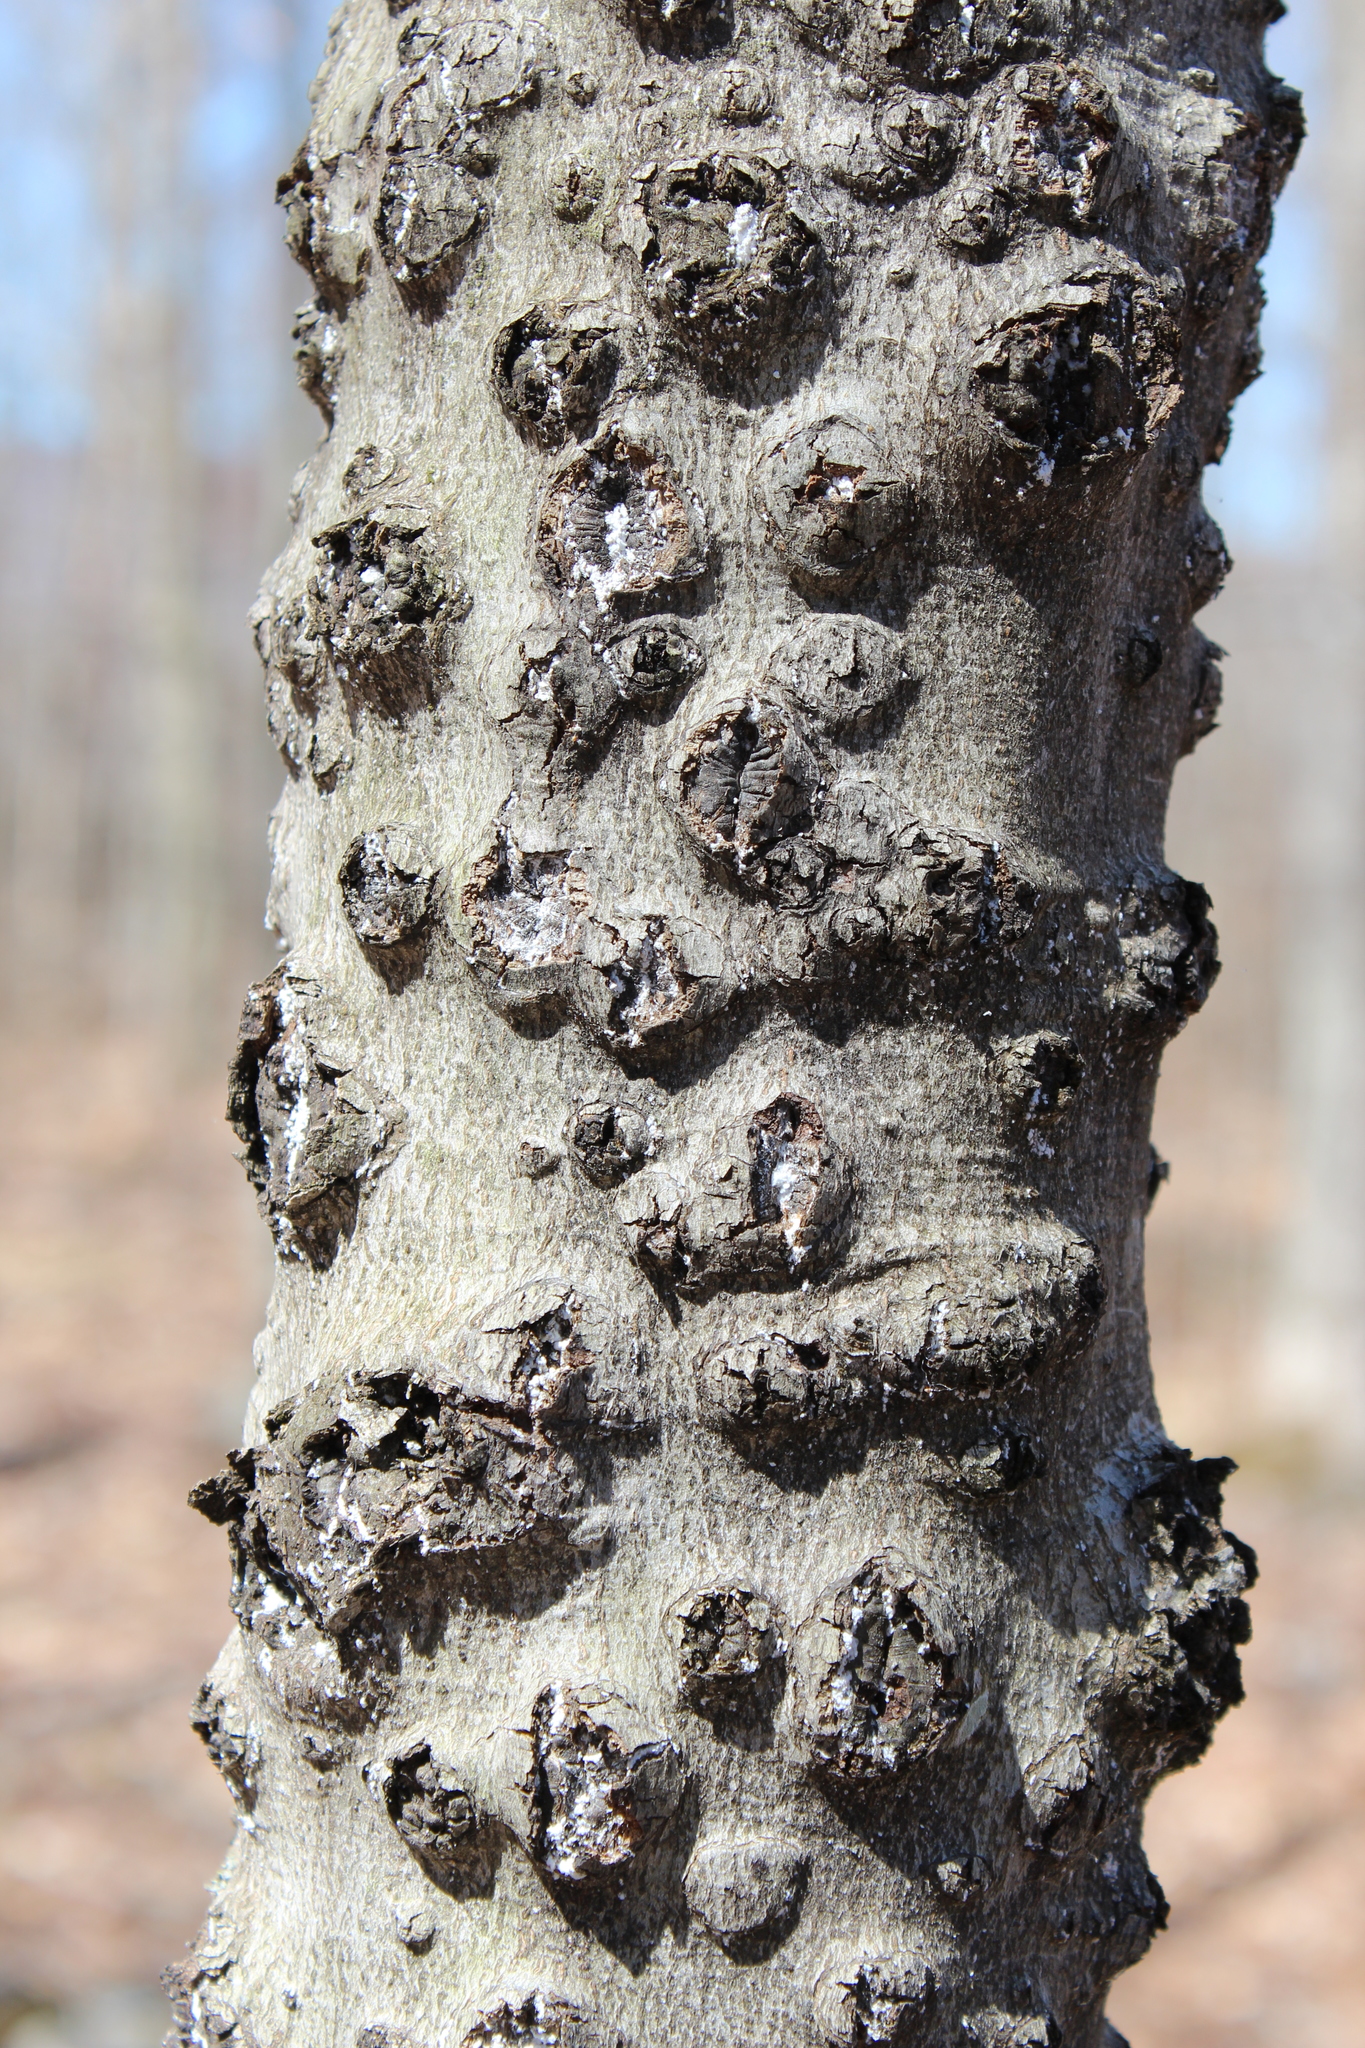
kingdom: Plantae
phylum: Tracheophyta
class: Magnoliopsida
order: Fagales
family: Fagaceae
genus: Fagus
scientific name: Fagus grandifolia
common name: American beech
